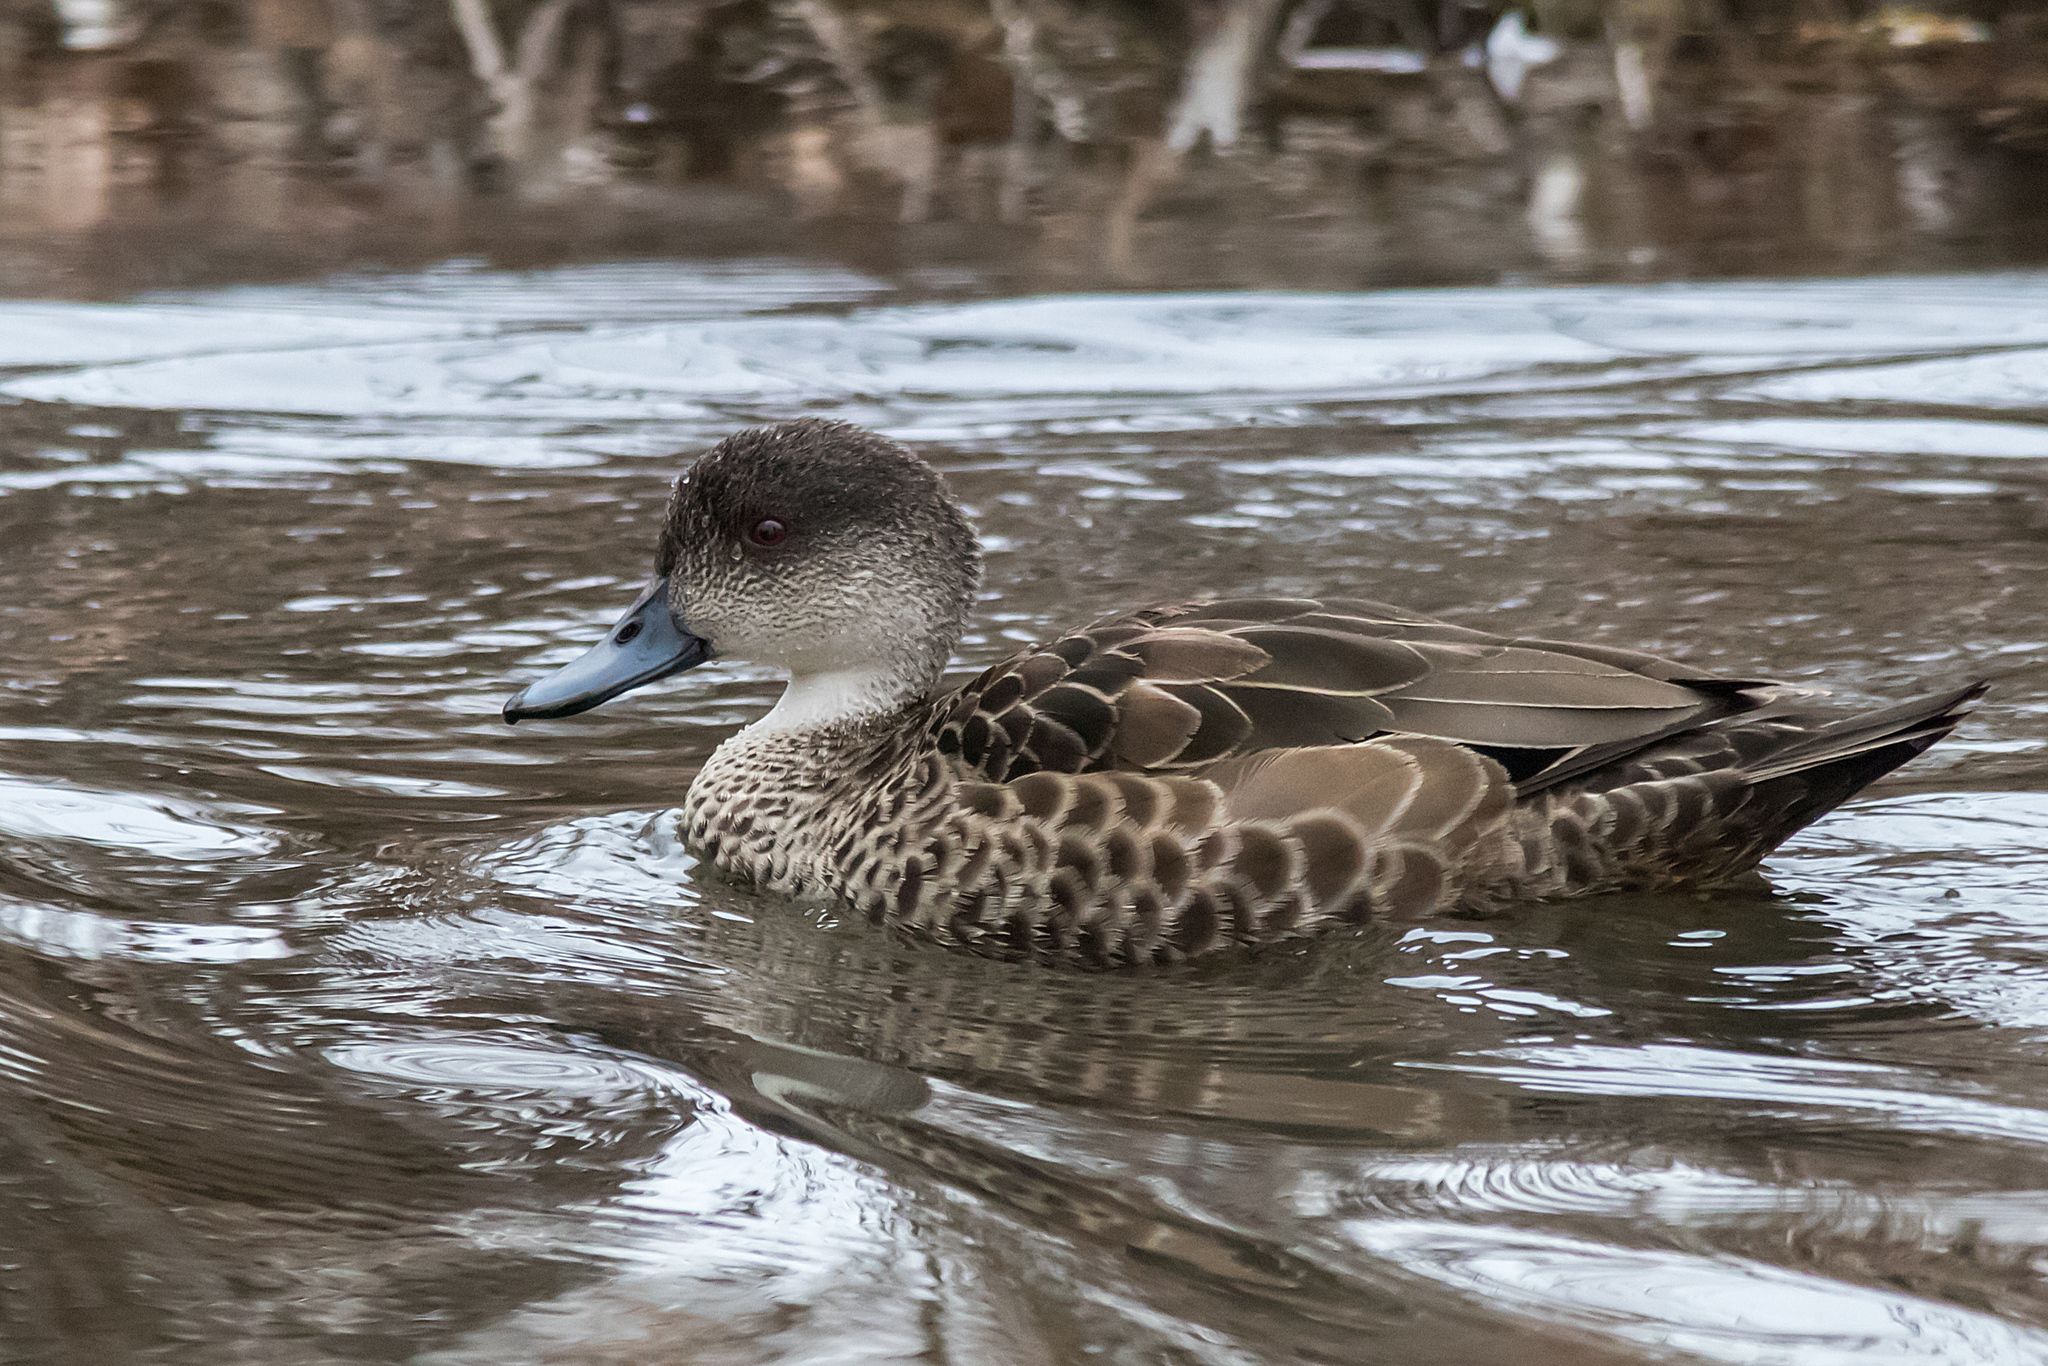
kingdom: Animalia
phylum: Chordata
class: Aves
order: Anseriformes
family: Anatidae
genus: Anas
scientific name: Anas gracilis
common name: Grey teal
